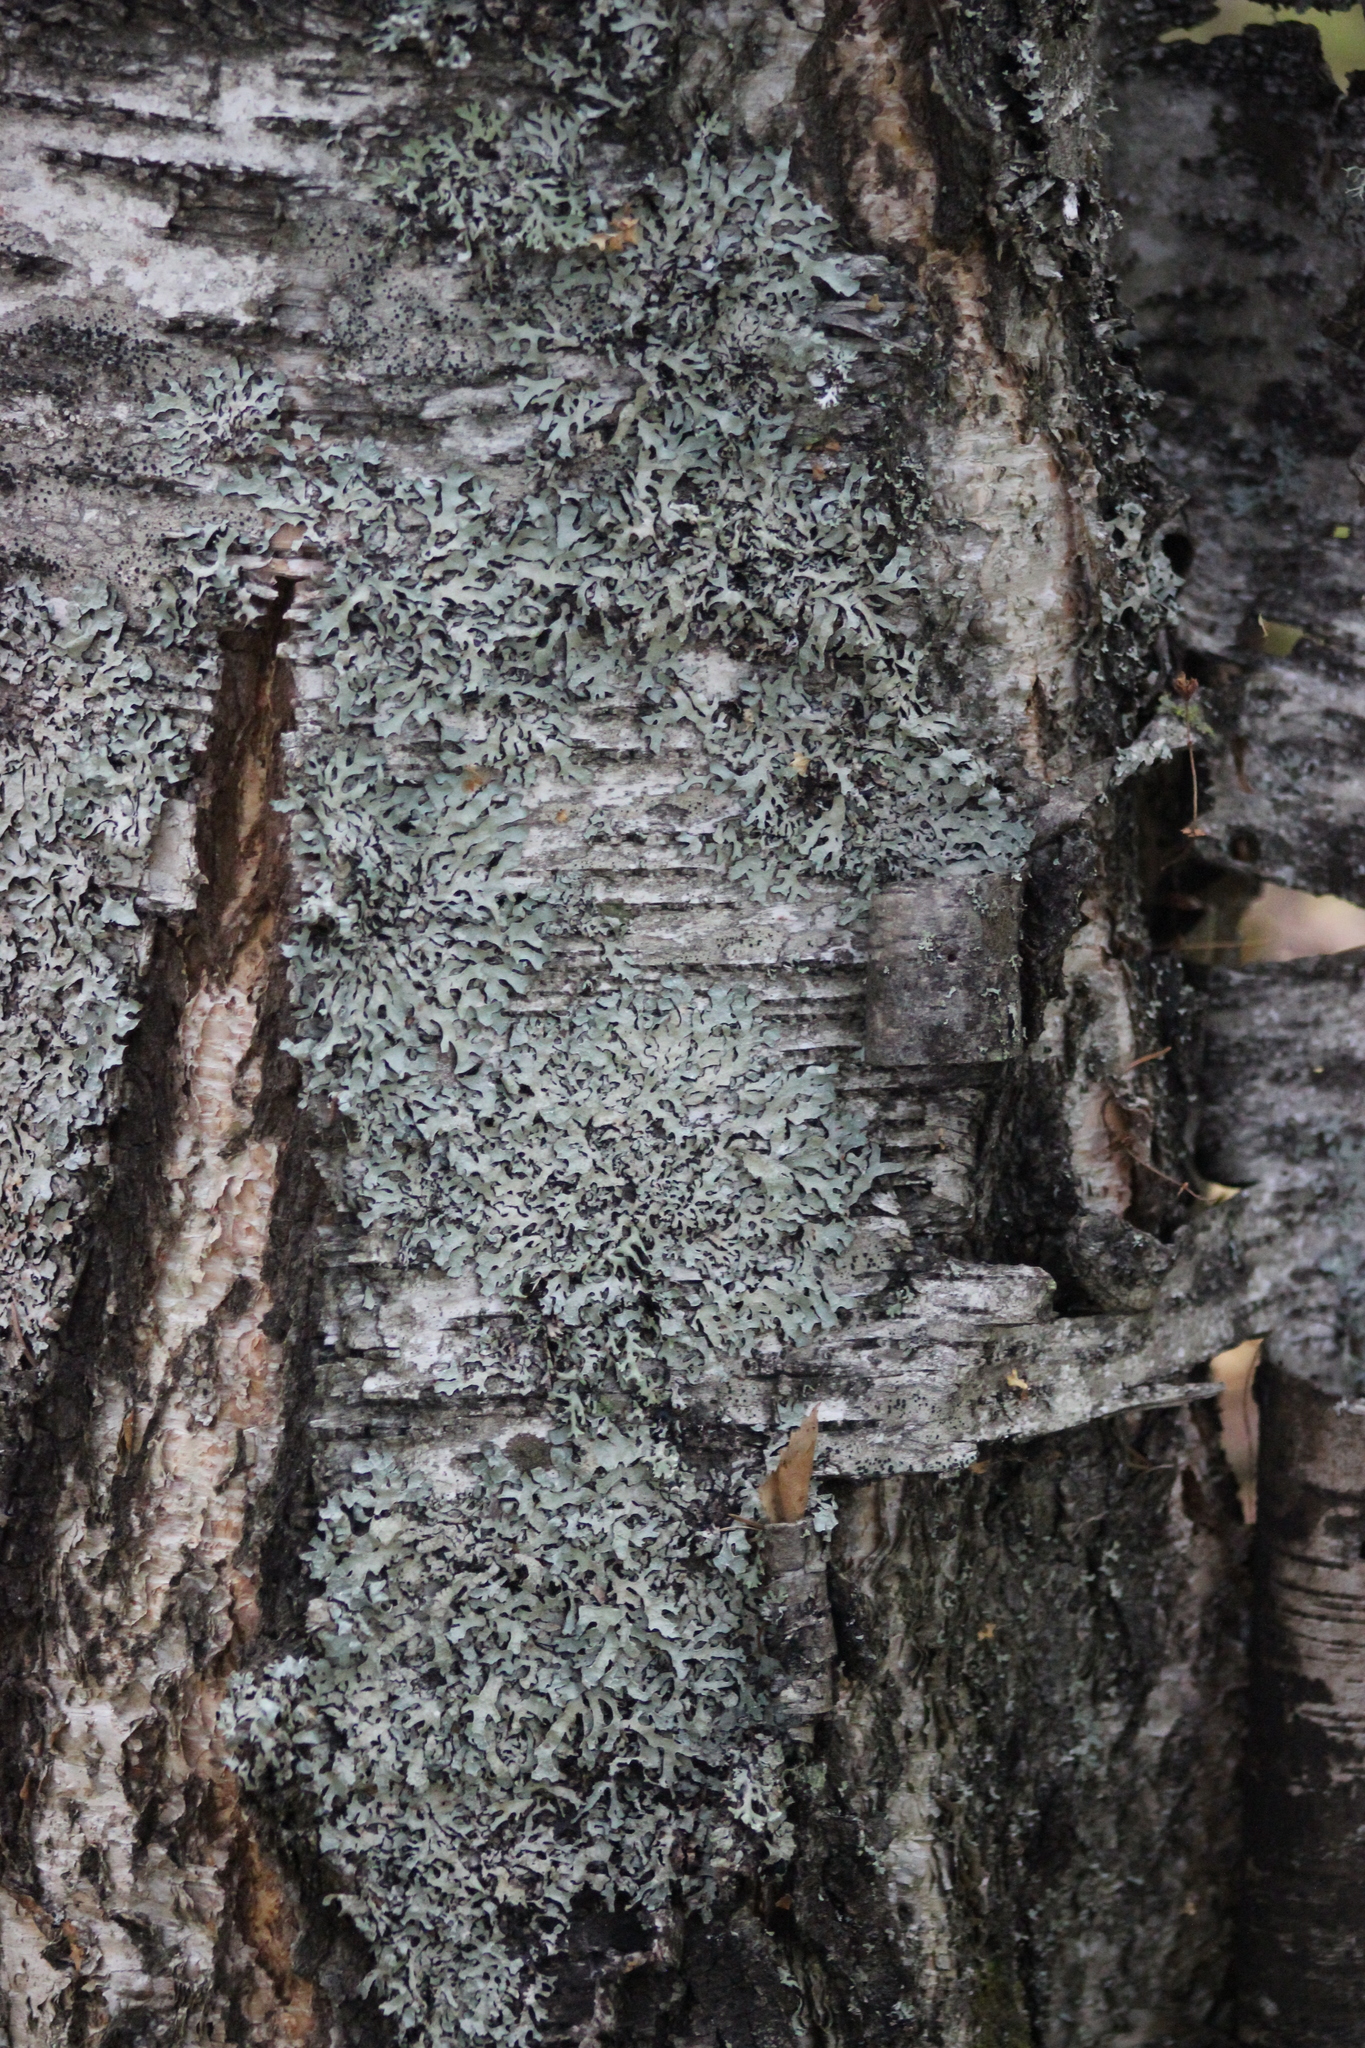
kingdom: Fungi
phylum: Ascomycota
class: Lecanoromycetes
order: Lecanorales
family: Parmeliaceae
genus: Parmelia
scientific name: Parmelia sulcata
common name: Netted shield lichen
